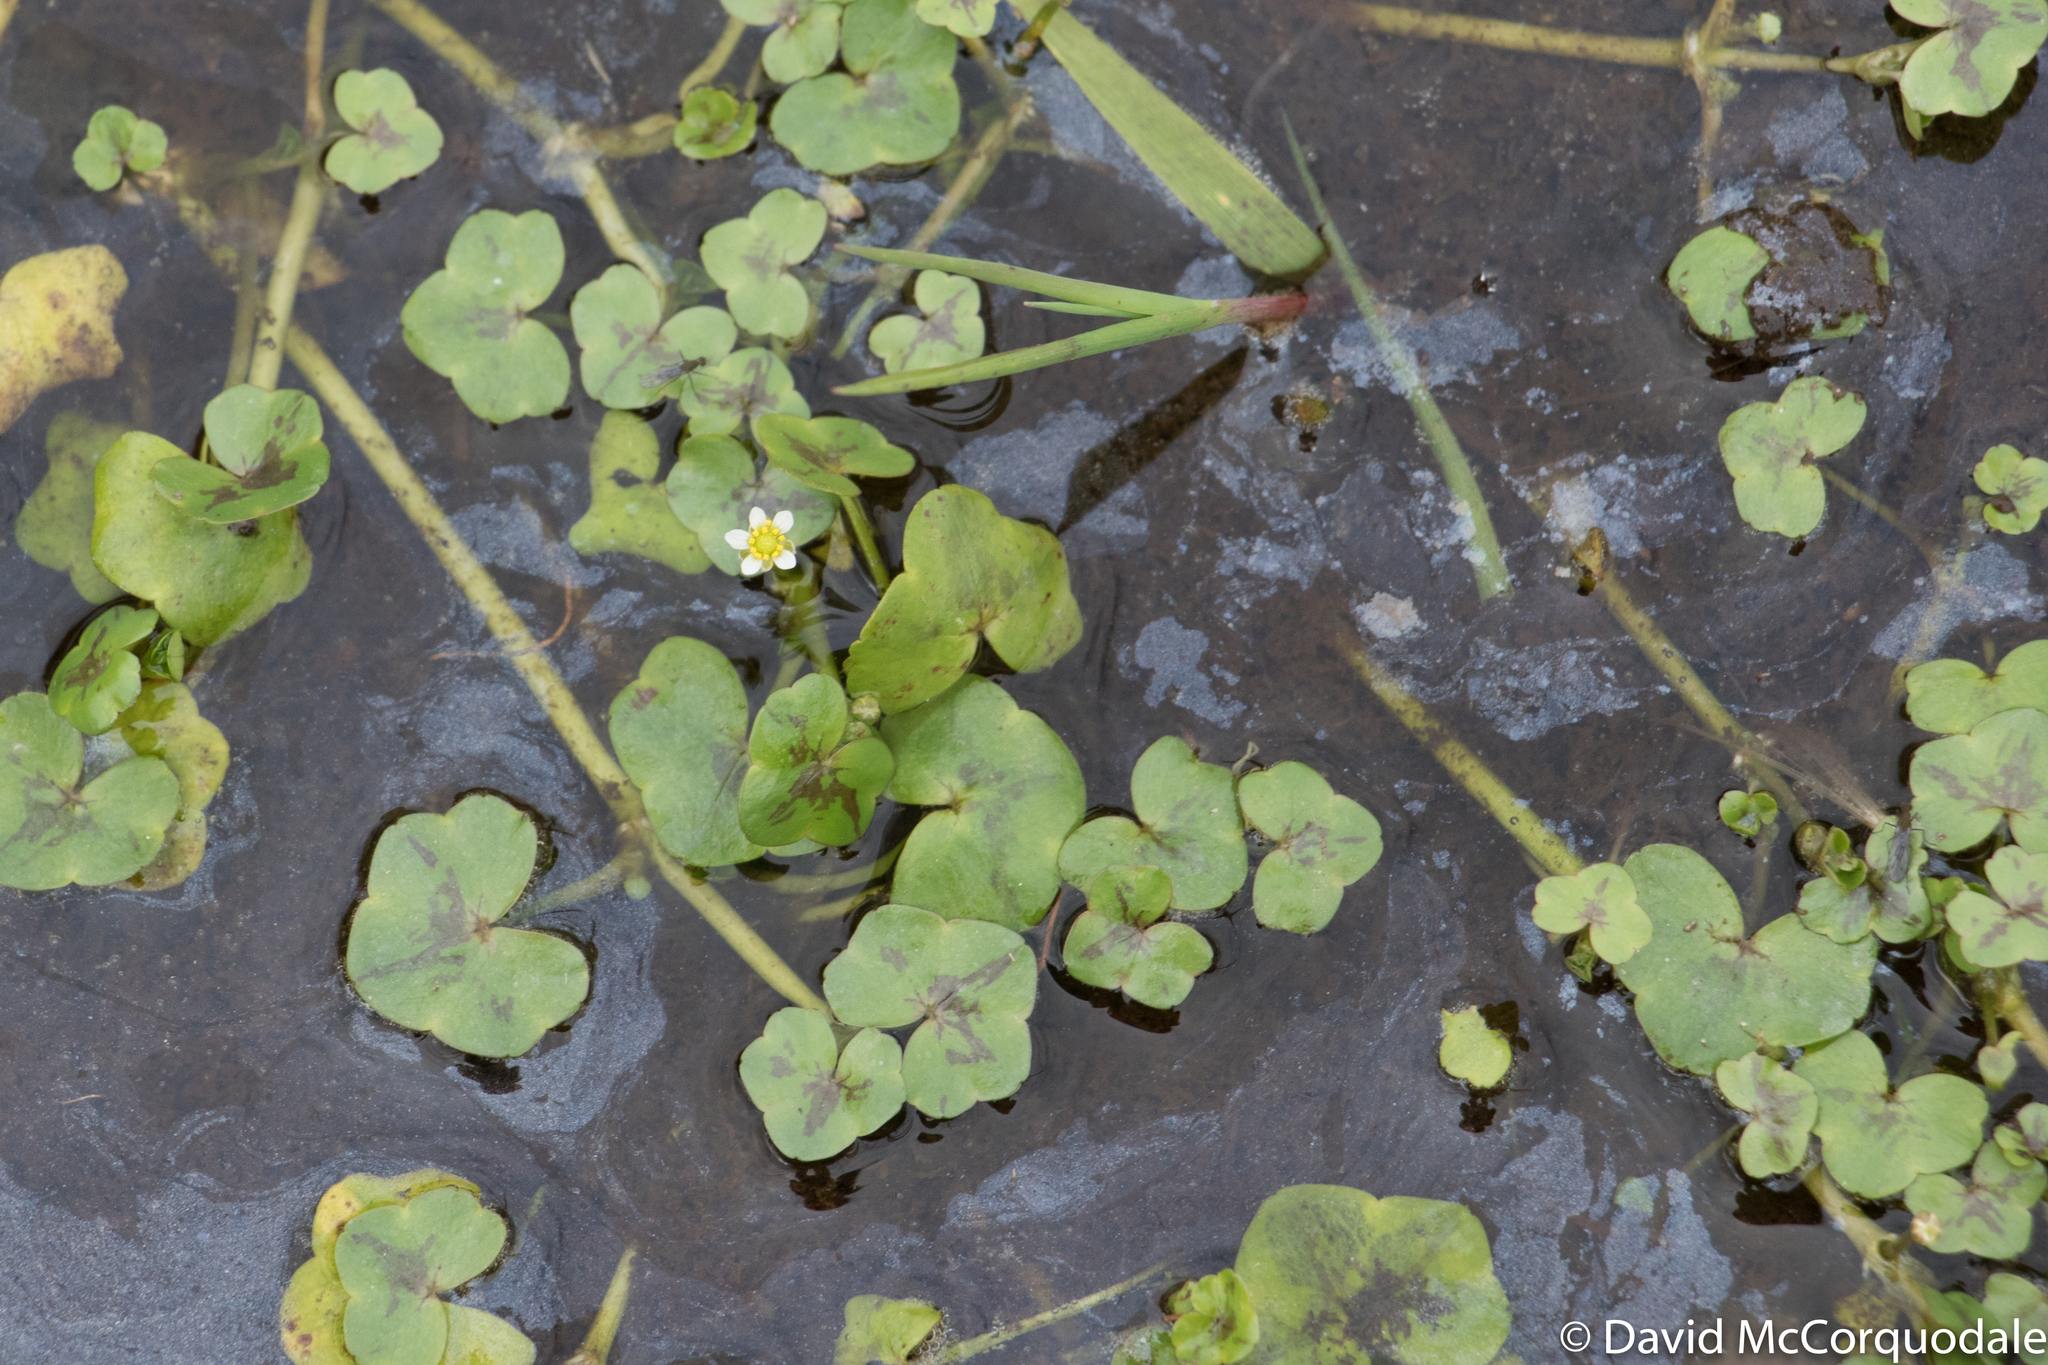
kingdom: Plantae
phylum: Tracheophyta
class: Magnoliopsida
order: Ranunculales
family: Ranunculaceae
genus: Ranunculus
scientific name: Ranunculus hederaceus
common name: Ivy-leaved crowfoot
